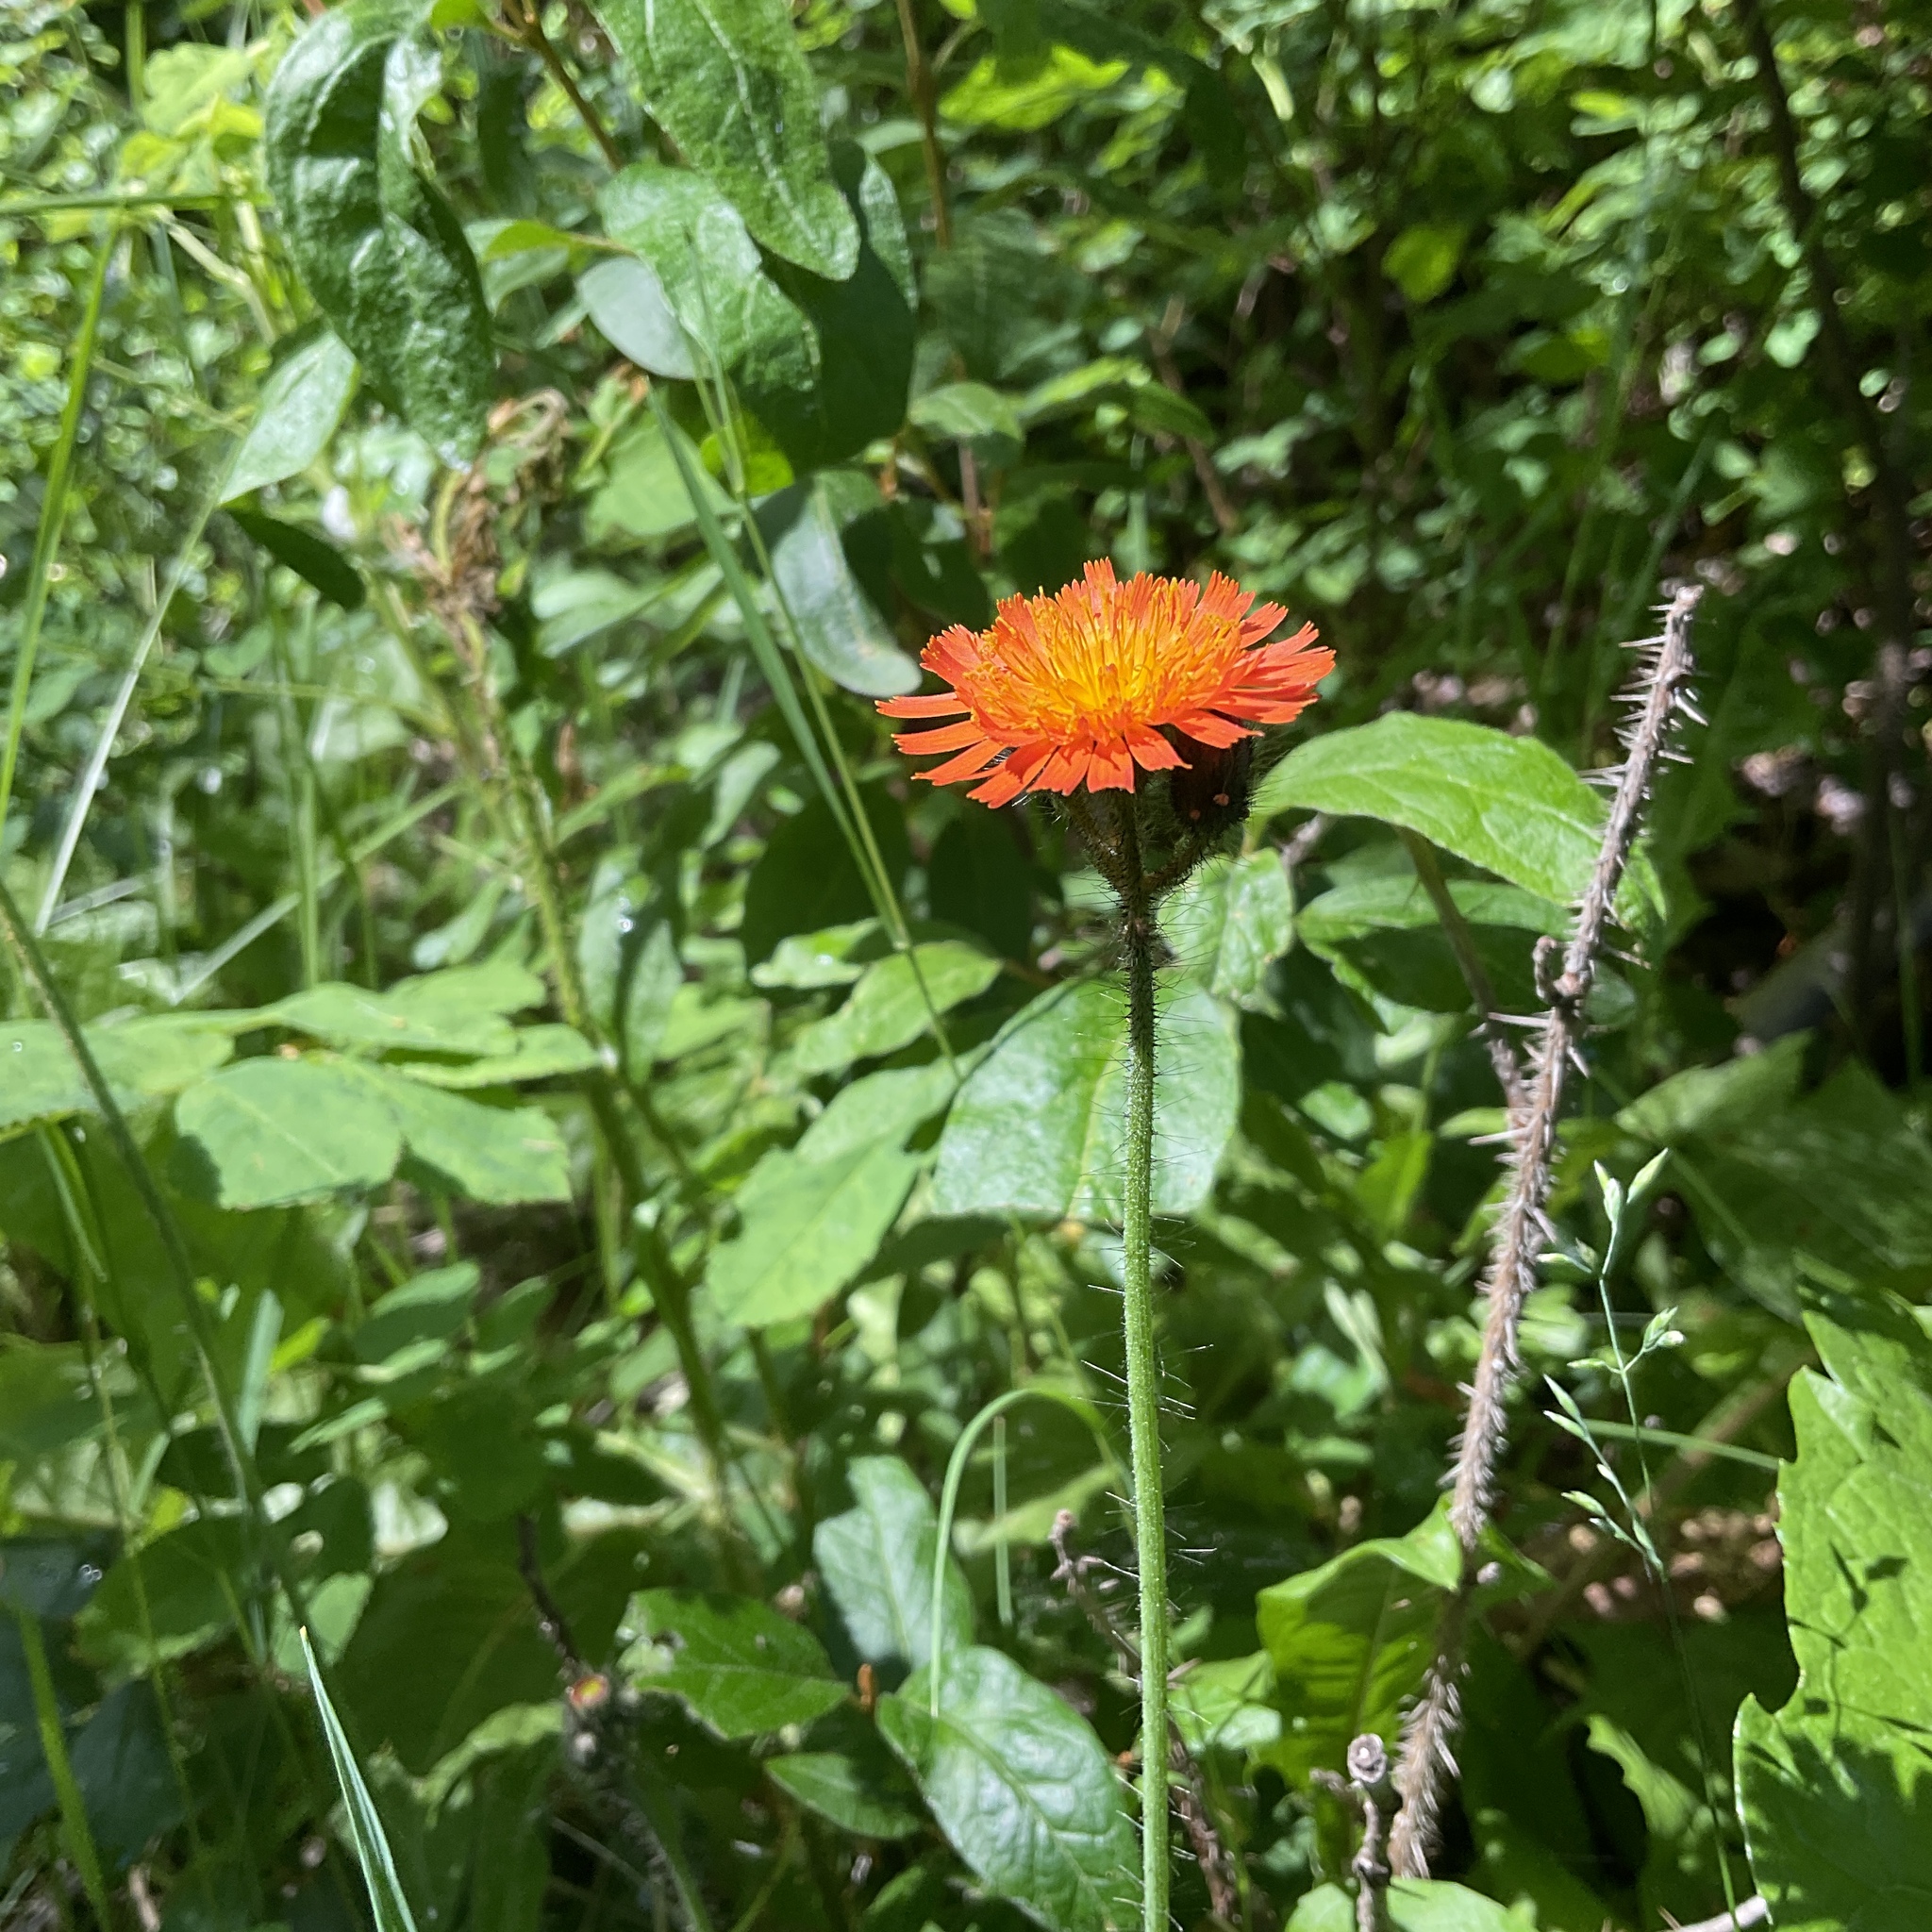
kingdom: Plantae
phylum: Tracheophyta
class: Magnoliopsida
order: Asterales
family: Asteraceae
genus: Pilosella
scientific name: Pilosella aurantiaca
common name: Fox-and-cubs
